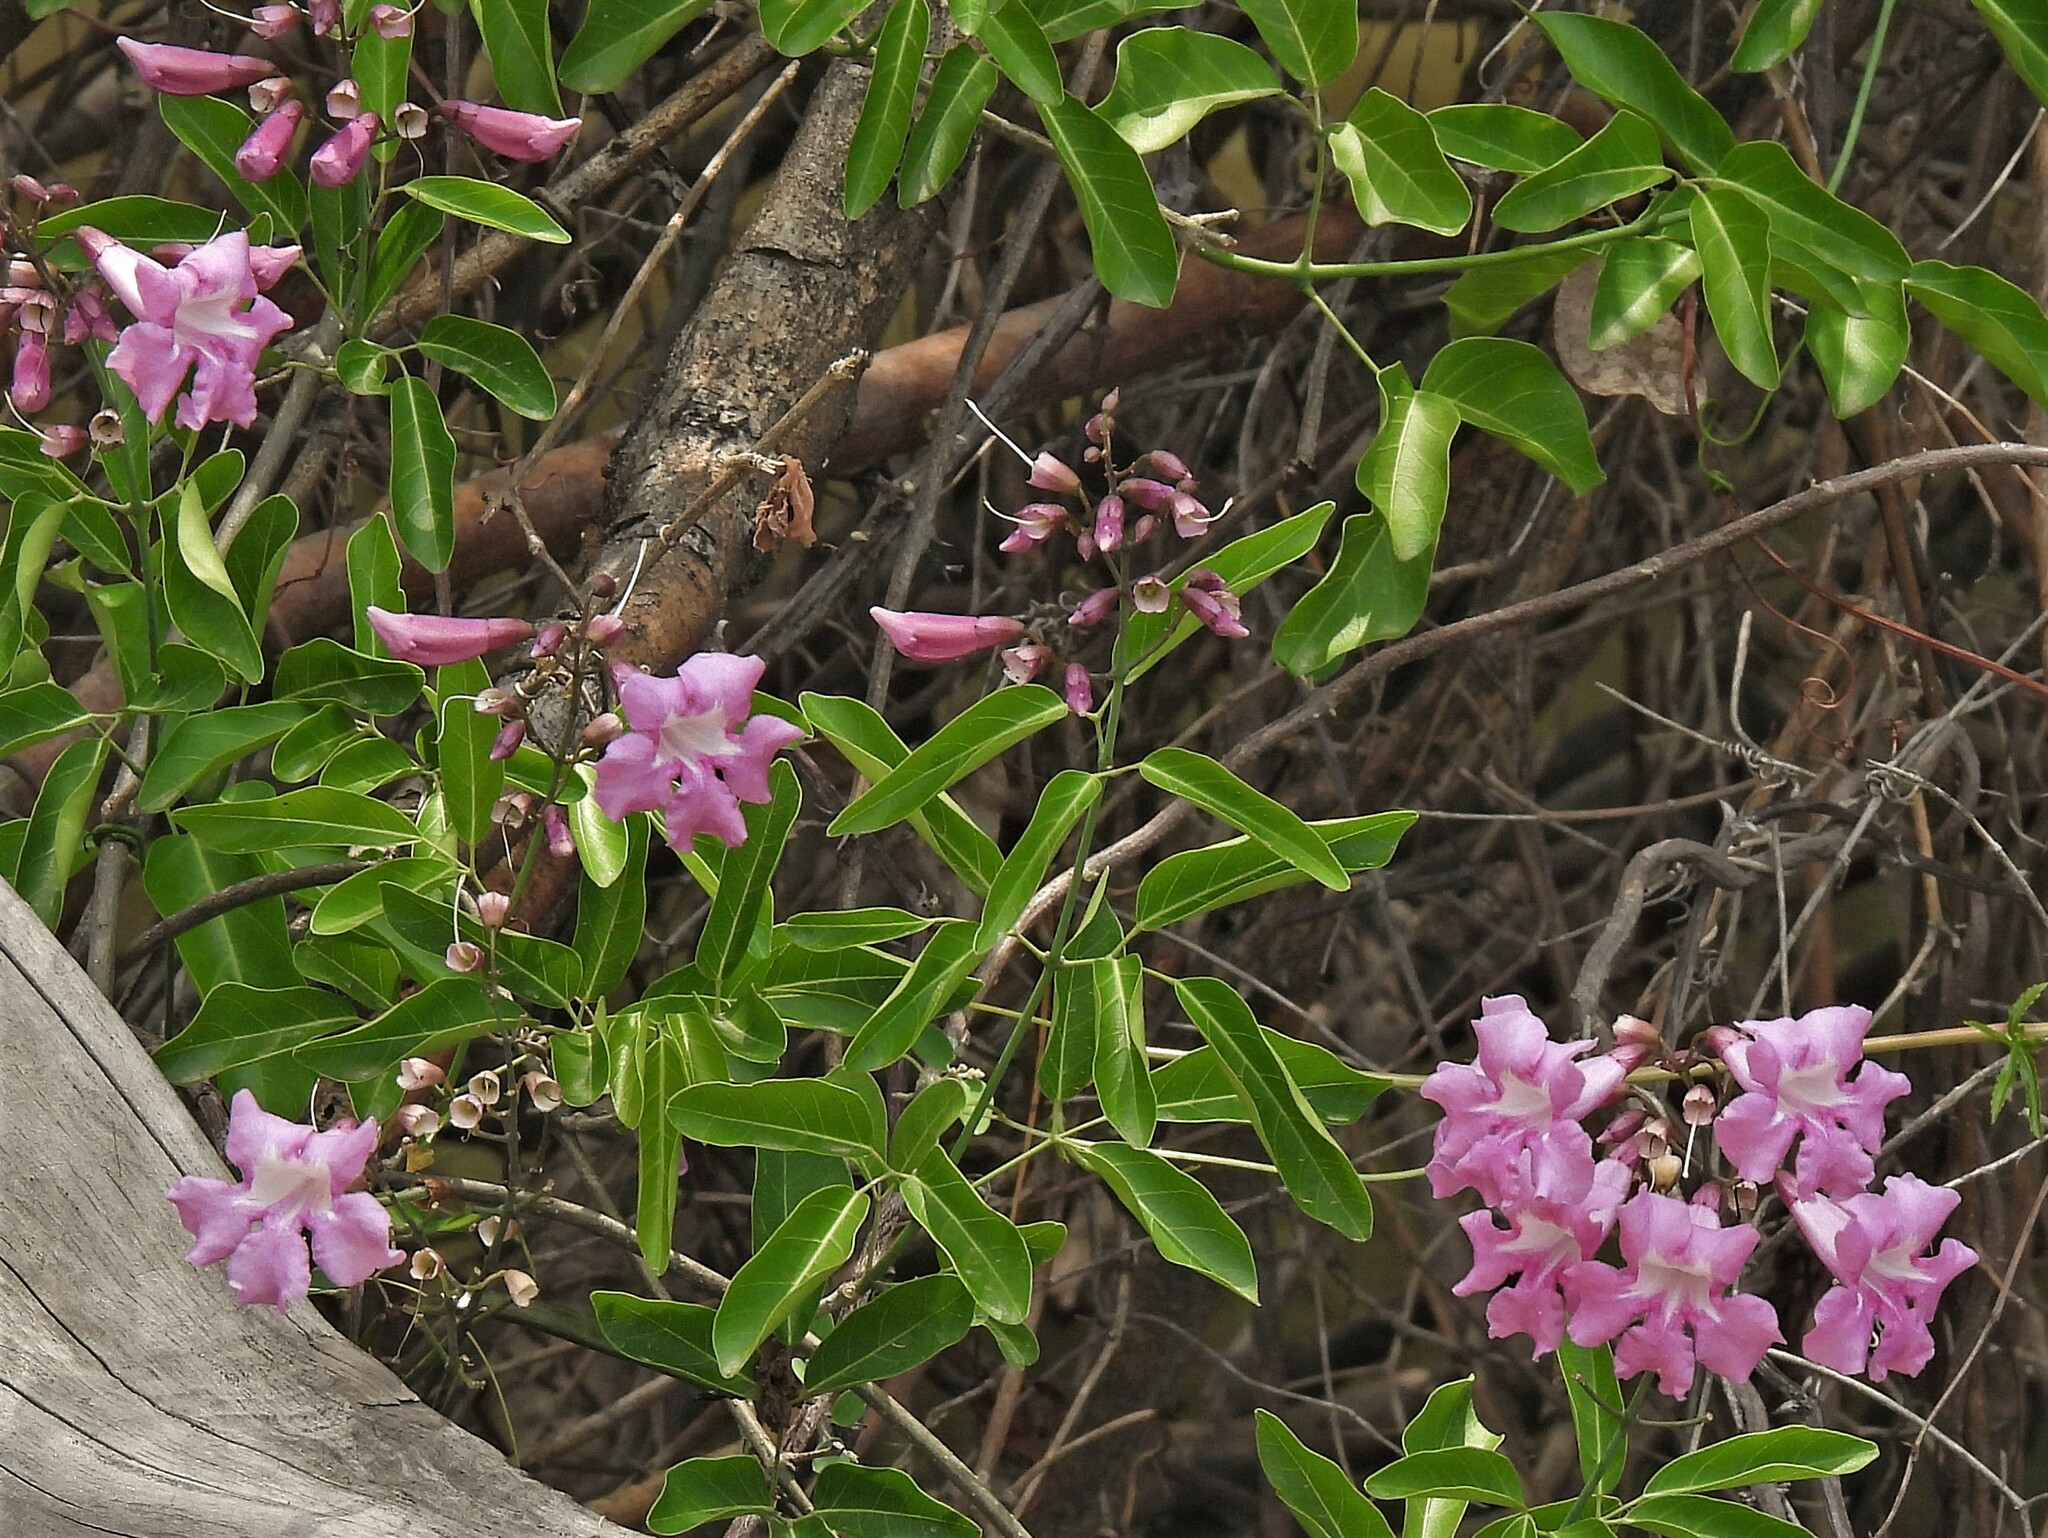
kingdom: Plantae
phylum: Tracheophyta
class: Magnoliopsida
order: Lamiales
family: Bignoniaceae
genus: Tanaecium
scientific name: Tanaecium dichotomum
